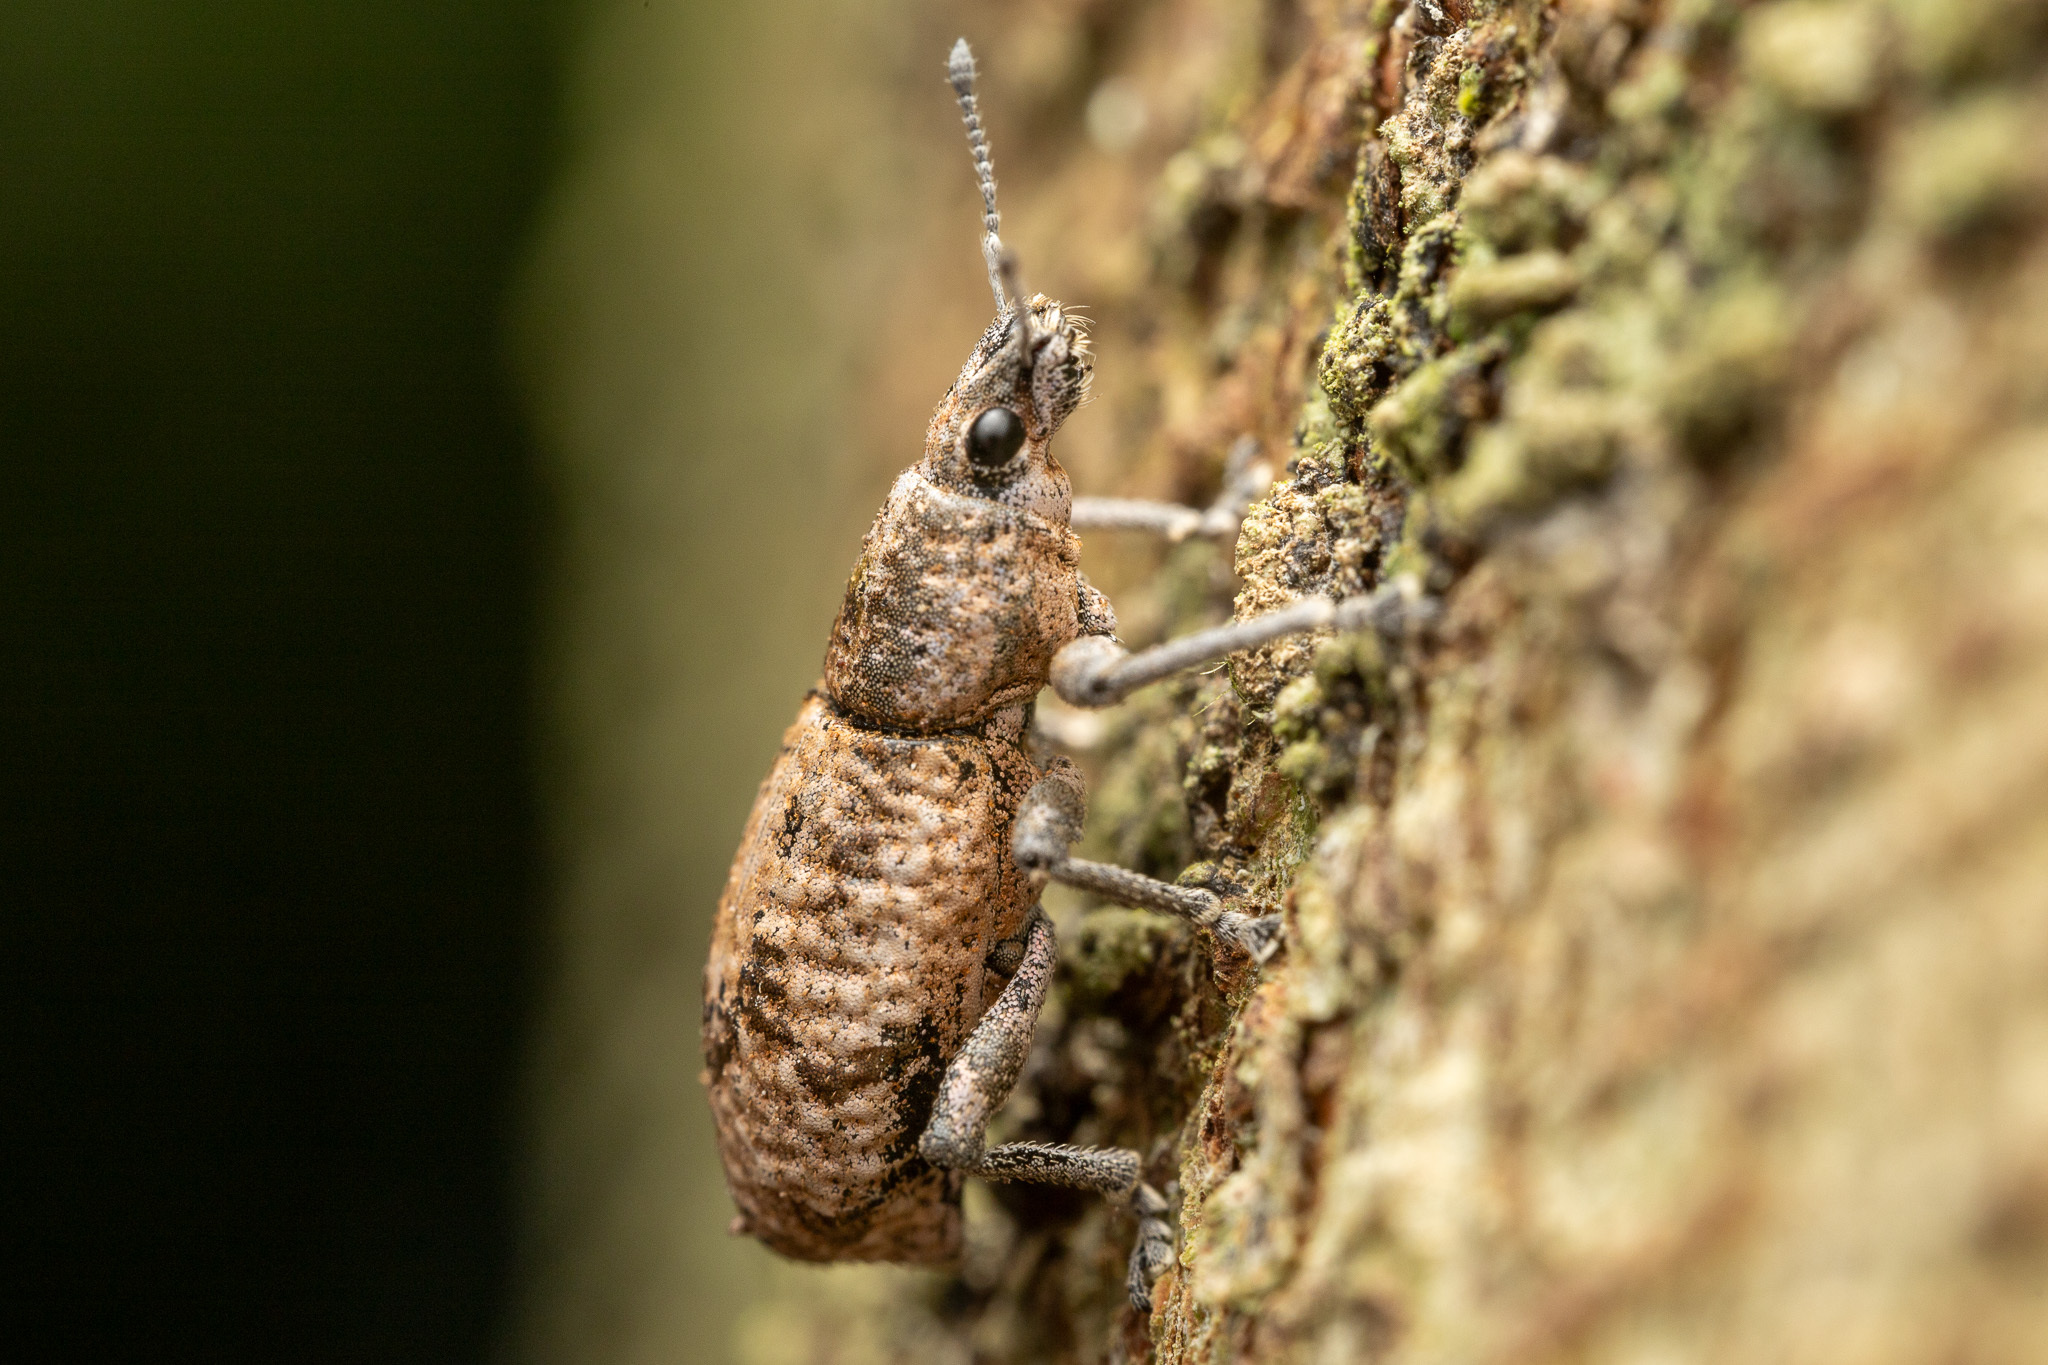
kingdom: Animalia
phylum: Arthropoda
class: Insecta
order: Coleoptera
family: Curculionidae
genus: Eumestorus
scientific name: Eumestorus luctuosus
